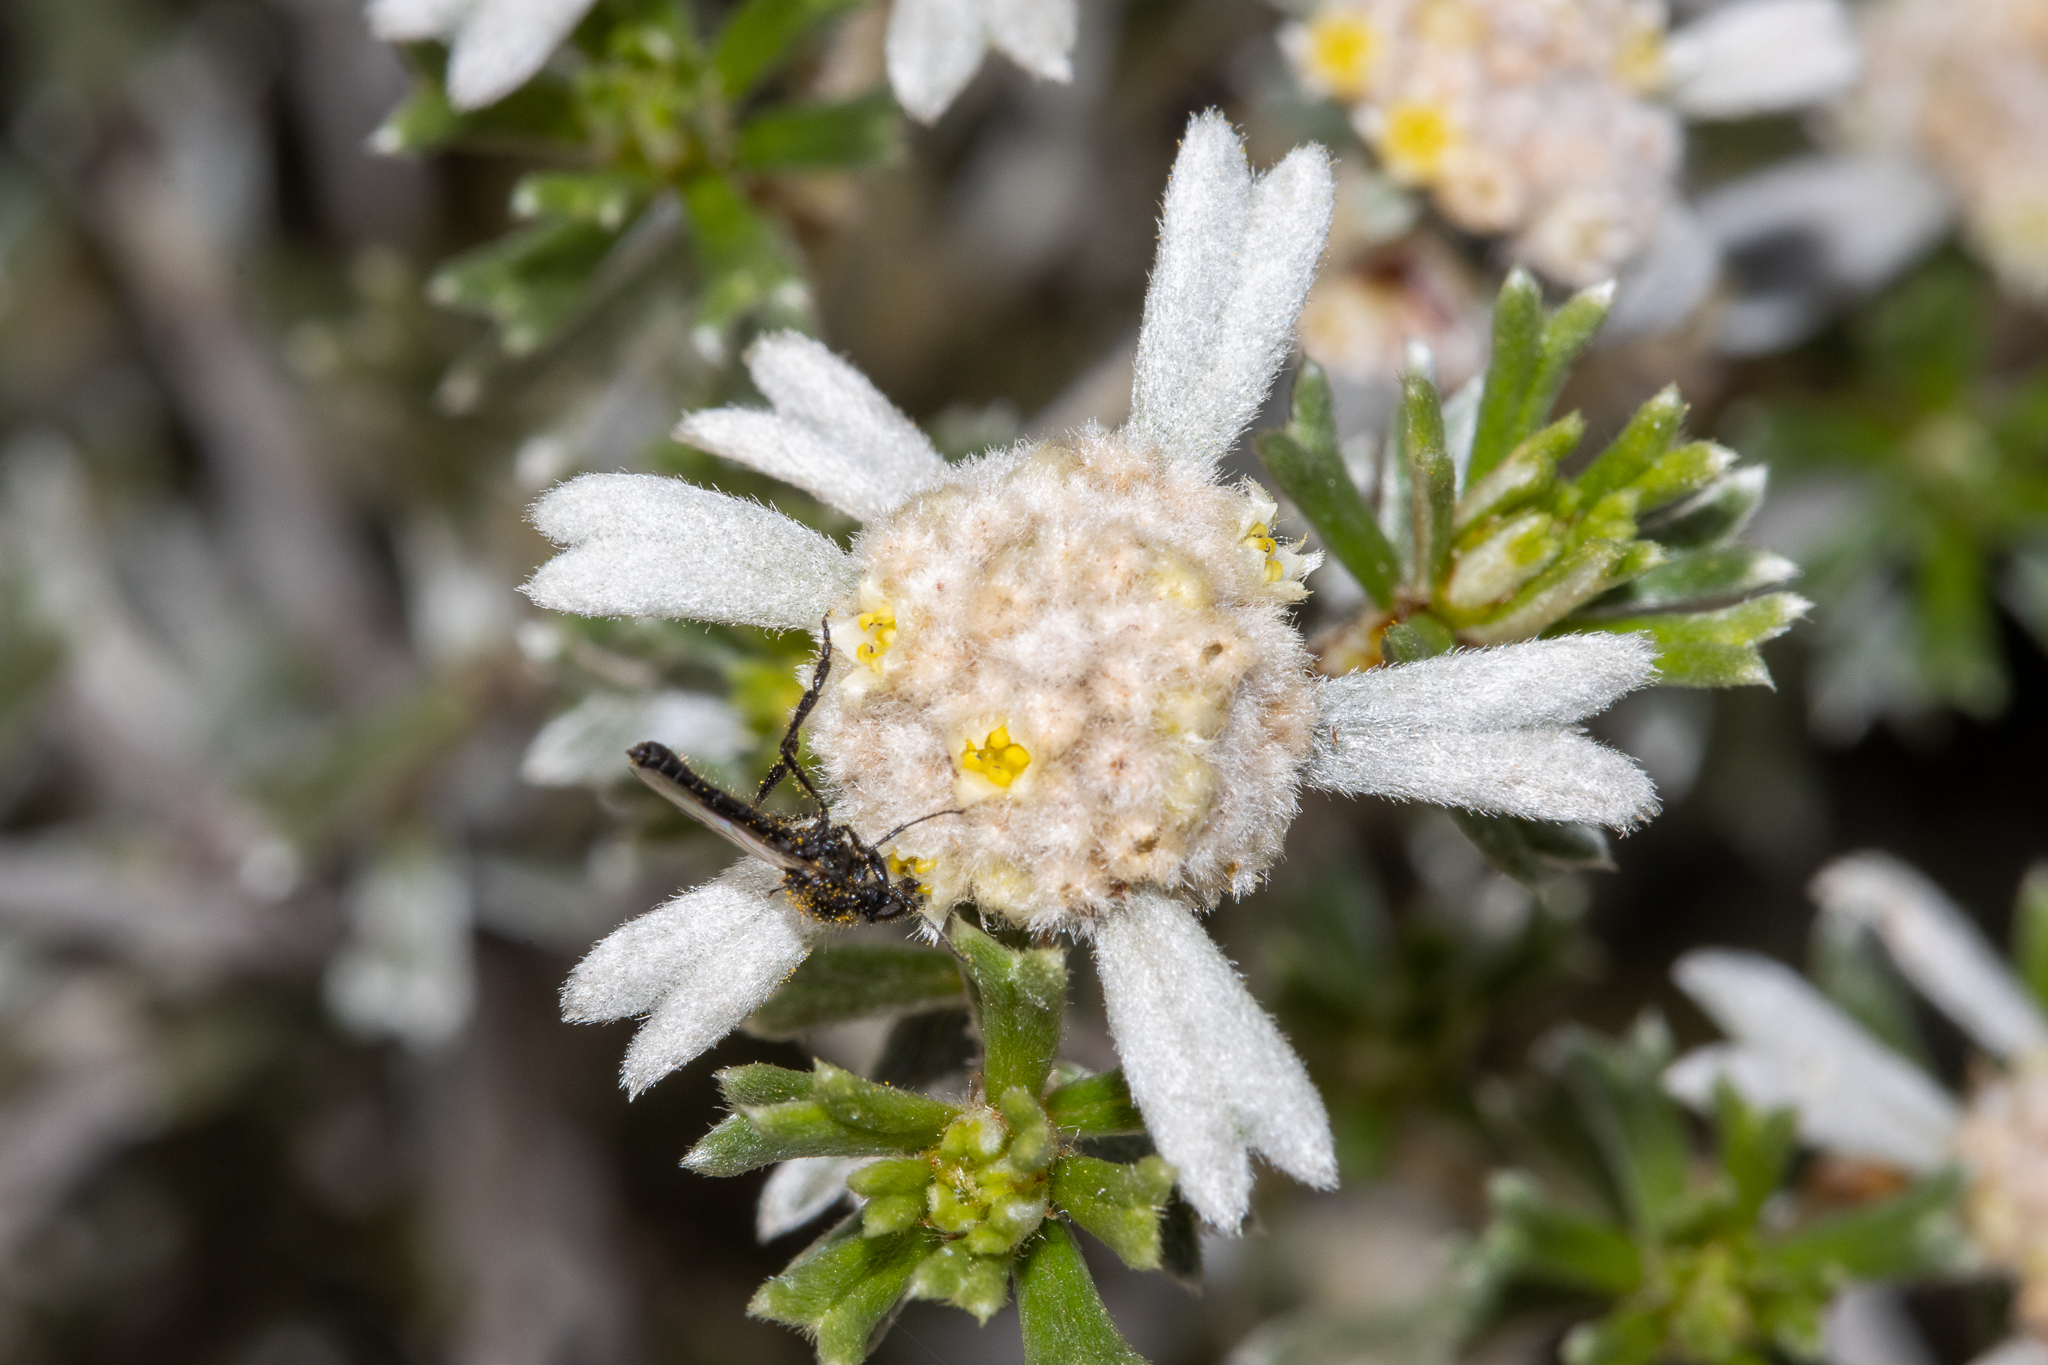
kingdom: Plantae
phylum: Tracheophyta
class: Magnoliopsida
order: Rosales
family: Rhamnaceae
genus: Spyridium
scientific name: Spyridium stenophyllum
